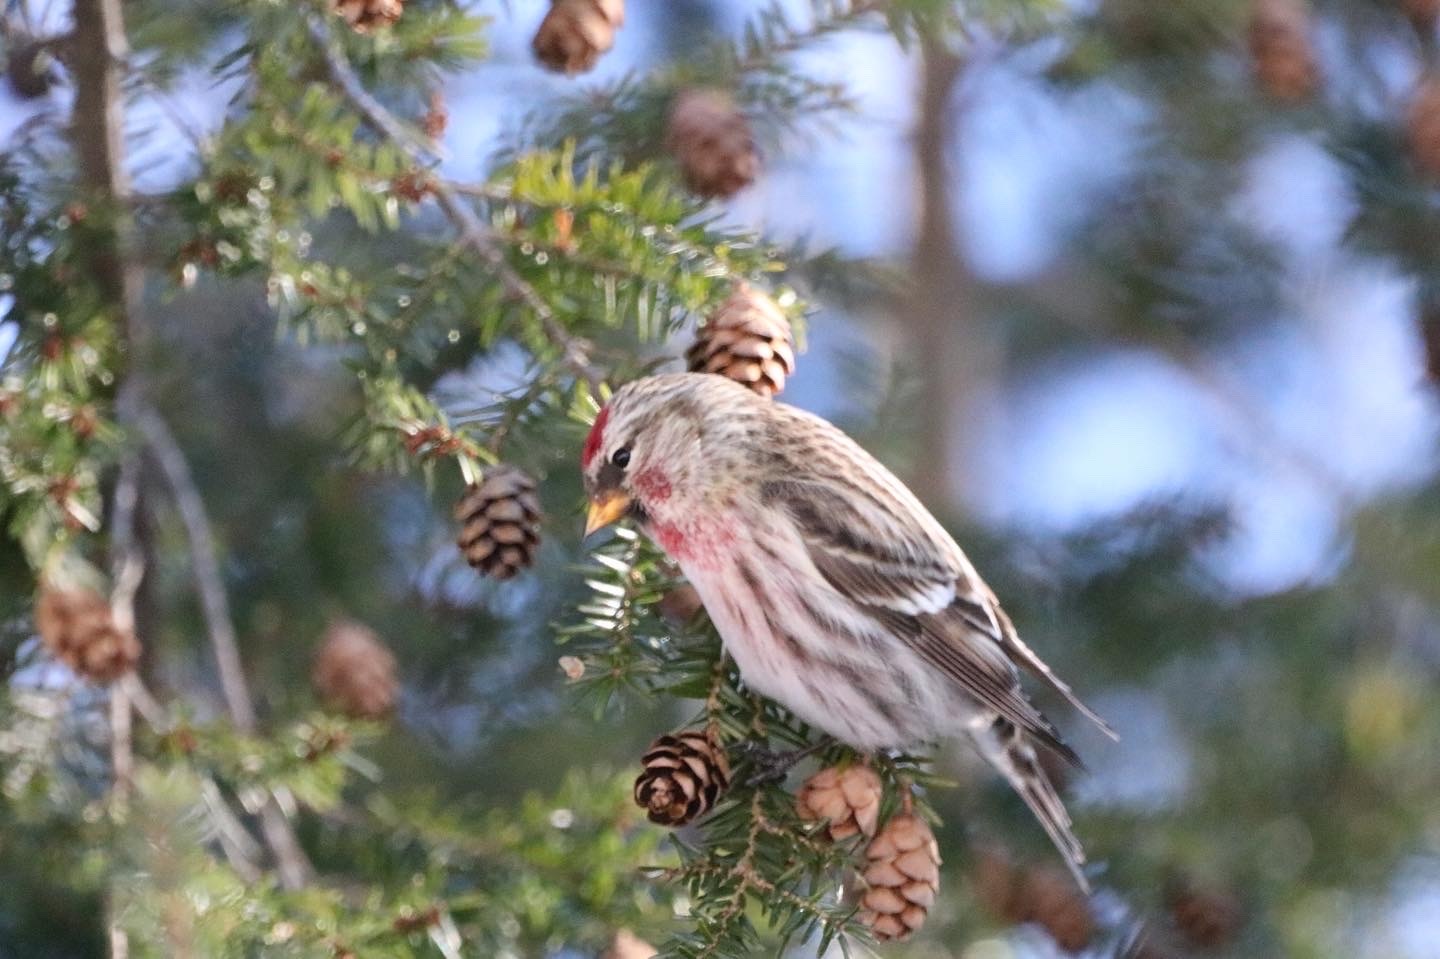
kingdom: Animalia
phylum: Chordata
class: Aves
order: Passeriformes
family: Fringillidae
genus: Acanthis
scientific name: Acanthis flammea
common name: Common redpoll
